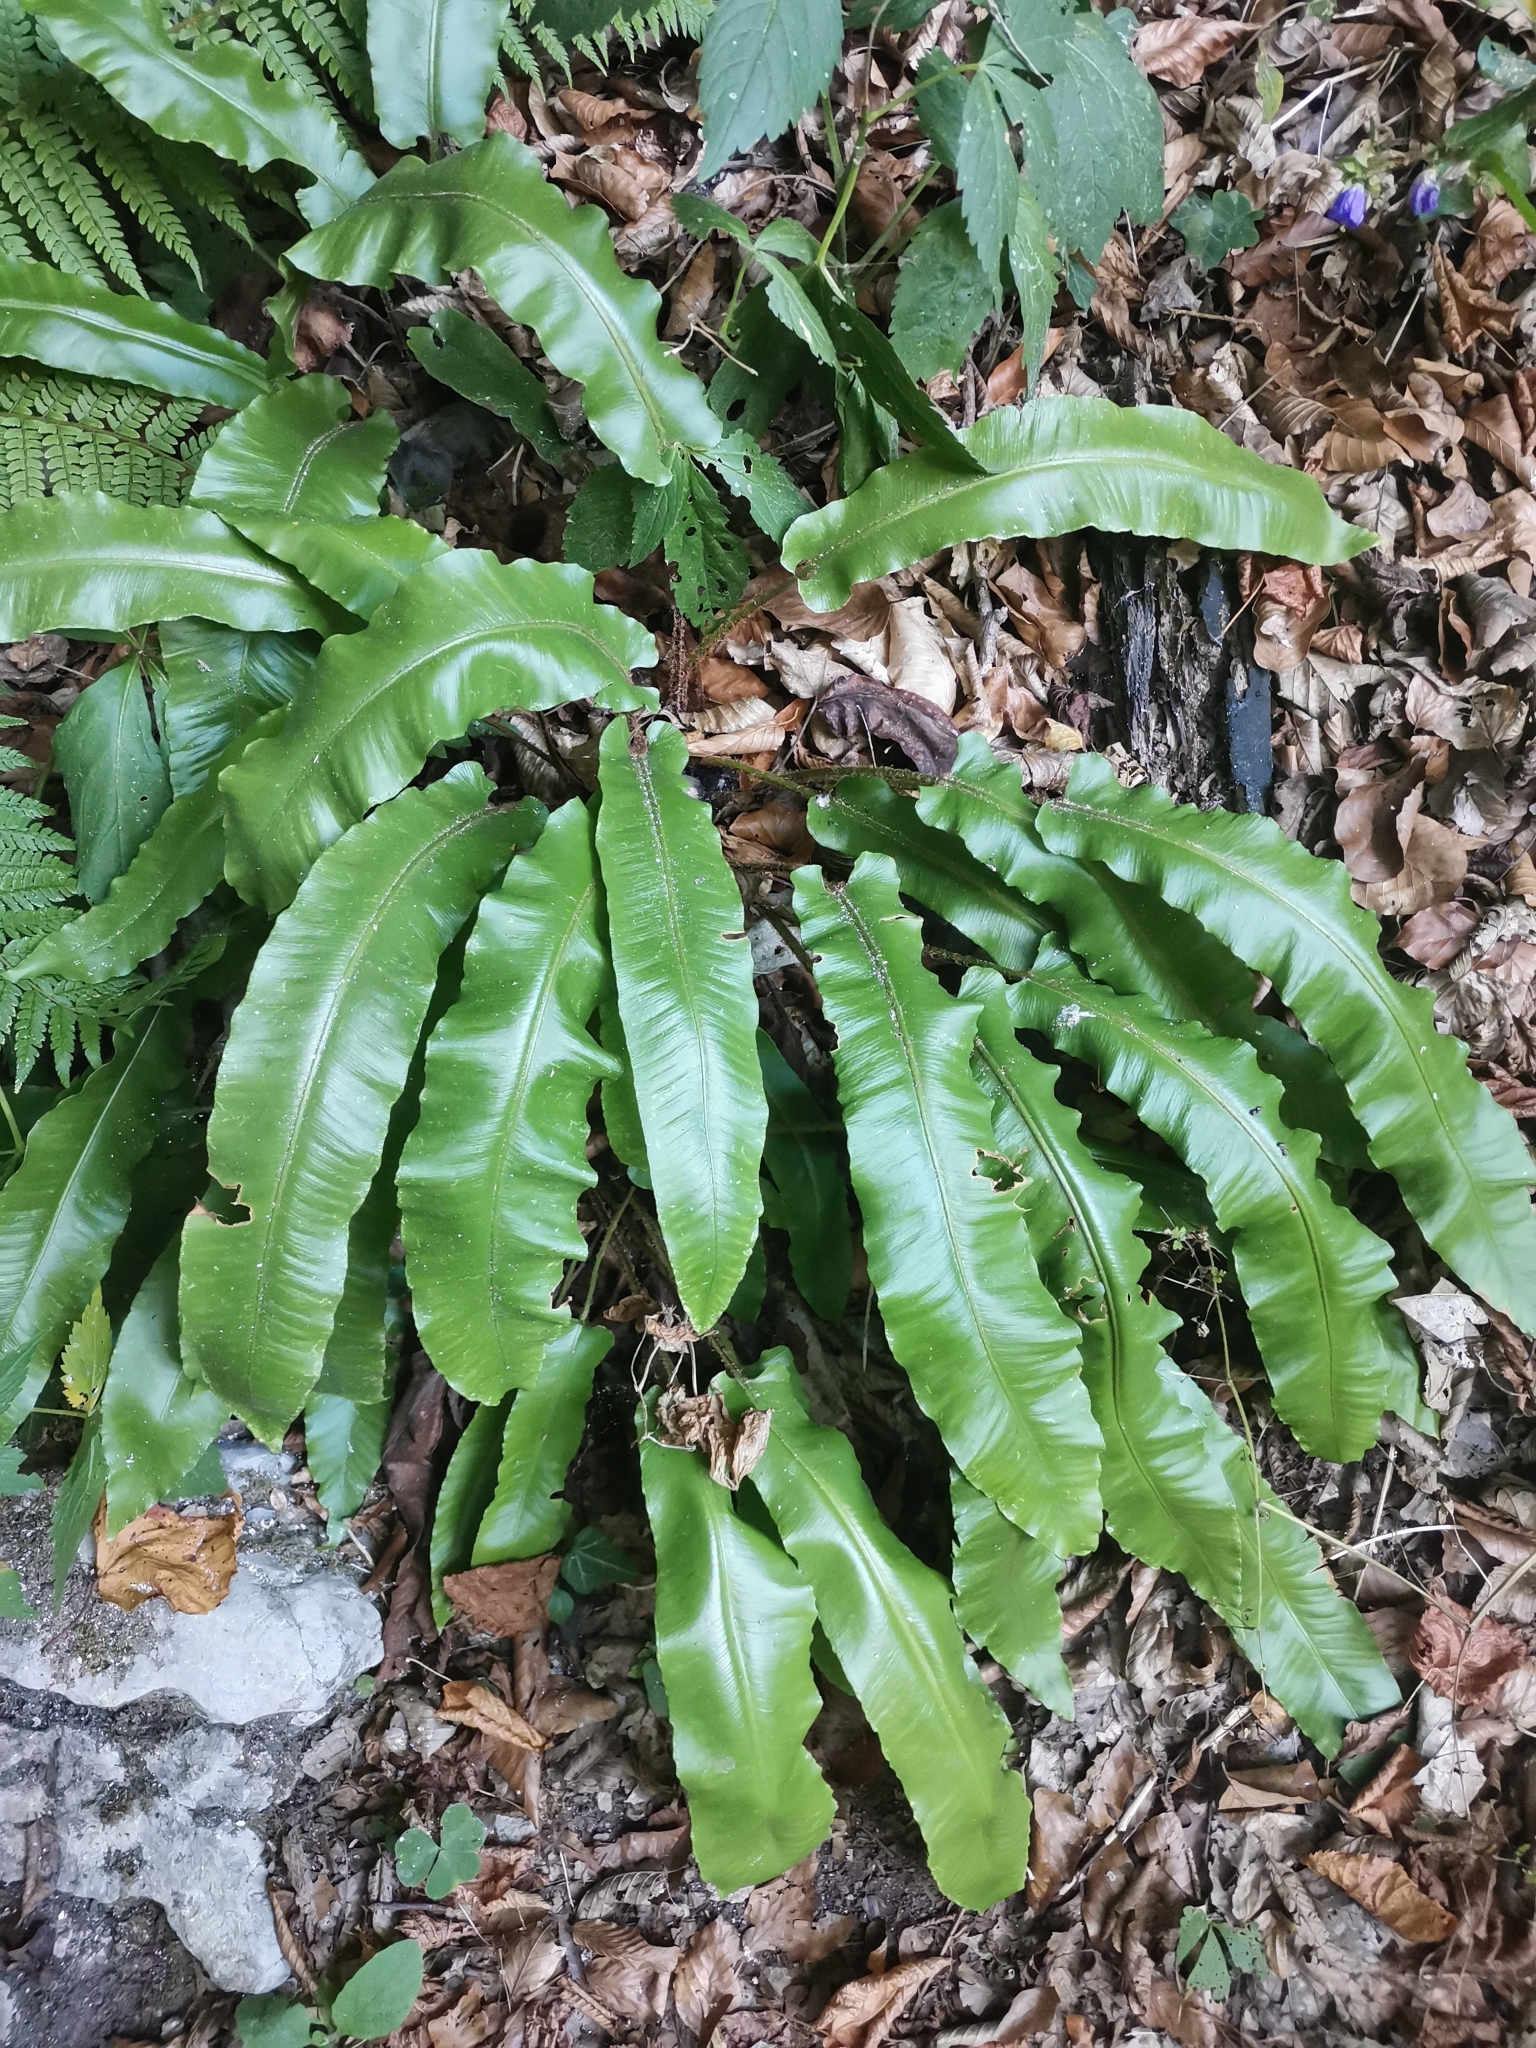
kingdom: Plantae
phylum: Tracheophyta
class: Polypodiopsida
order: Polypodiales
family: Aspleniaceae
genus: Asplenium
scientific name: Asplenium scolopendrium
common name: Hart's-tongue fern
